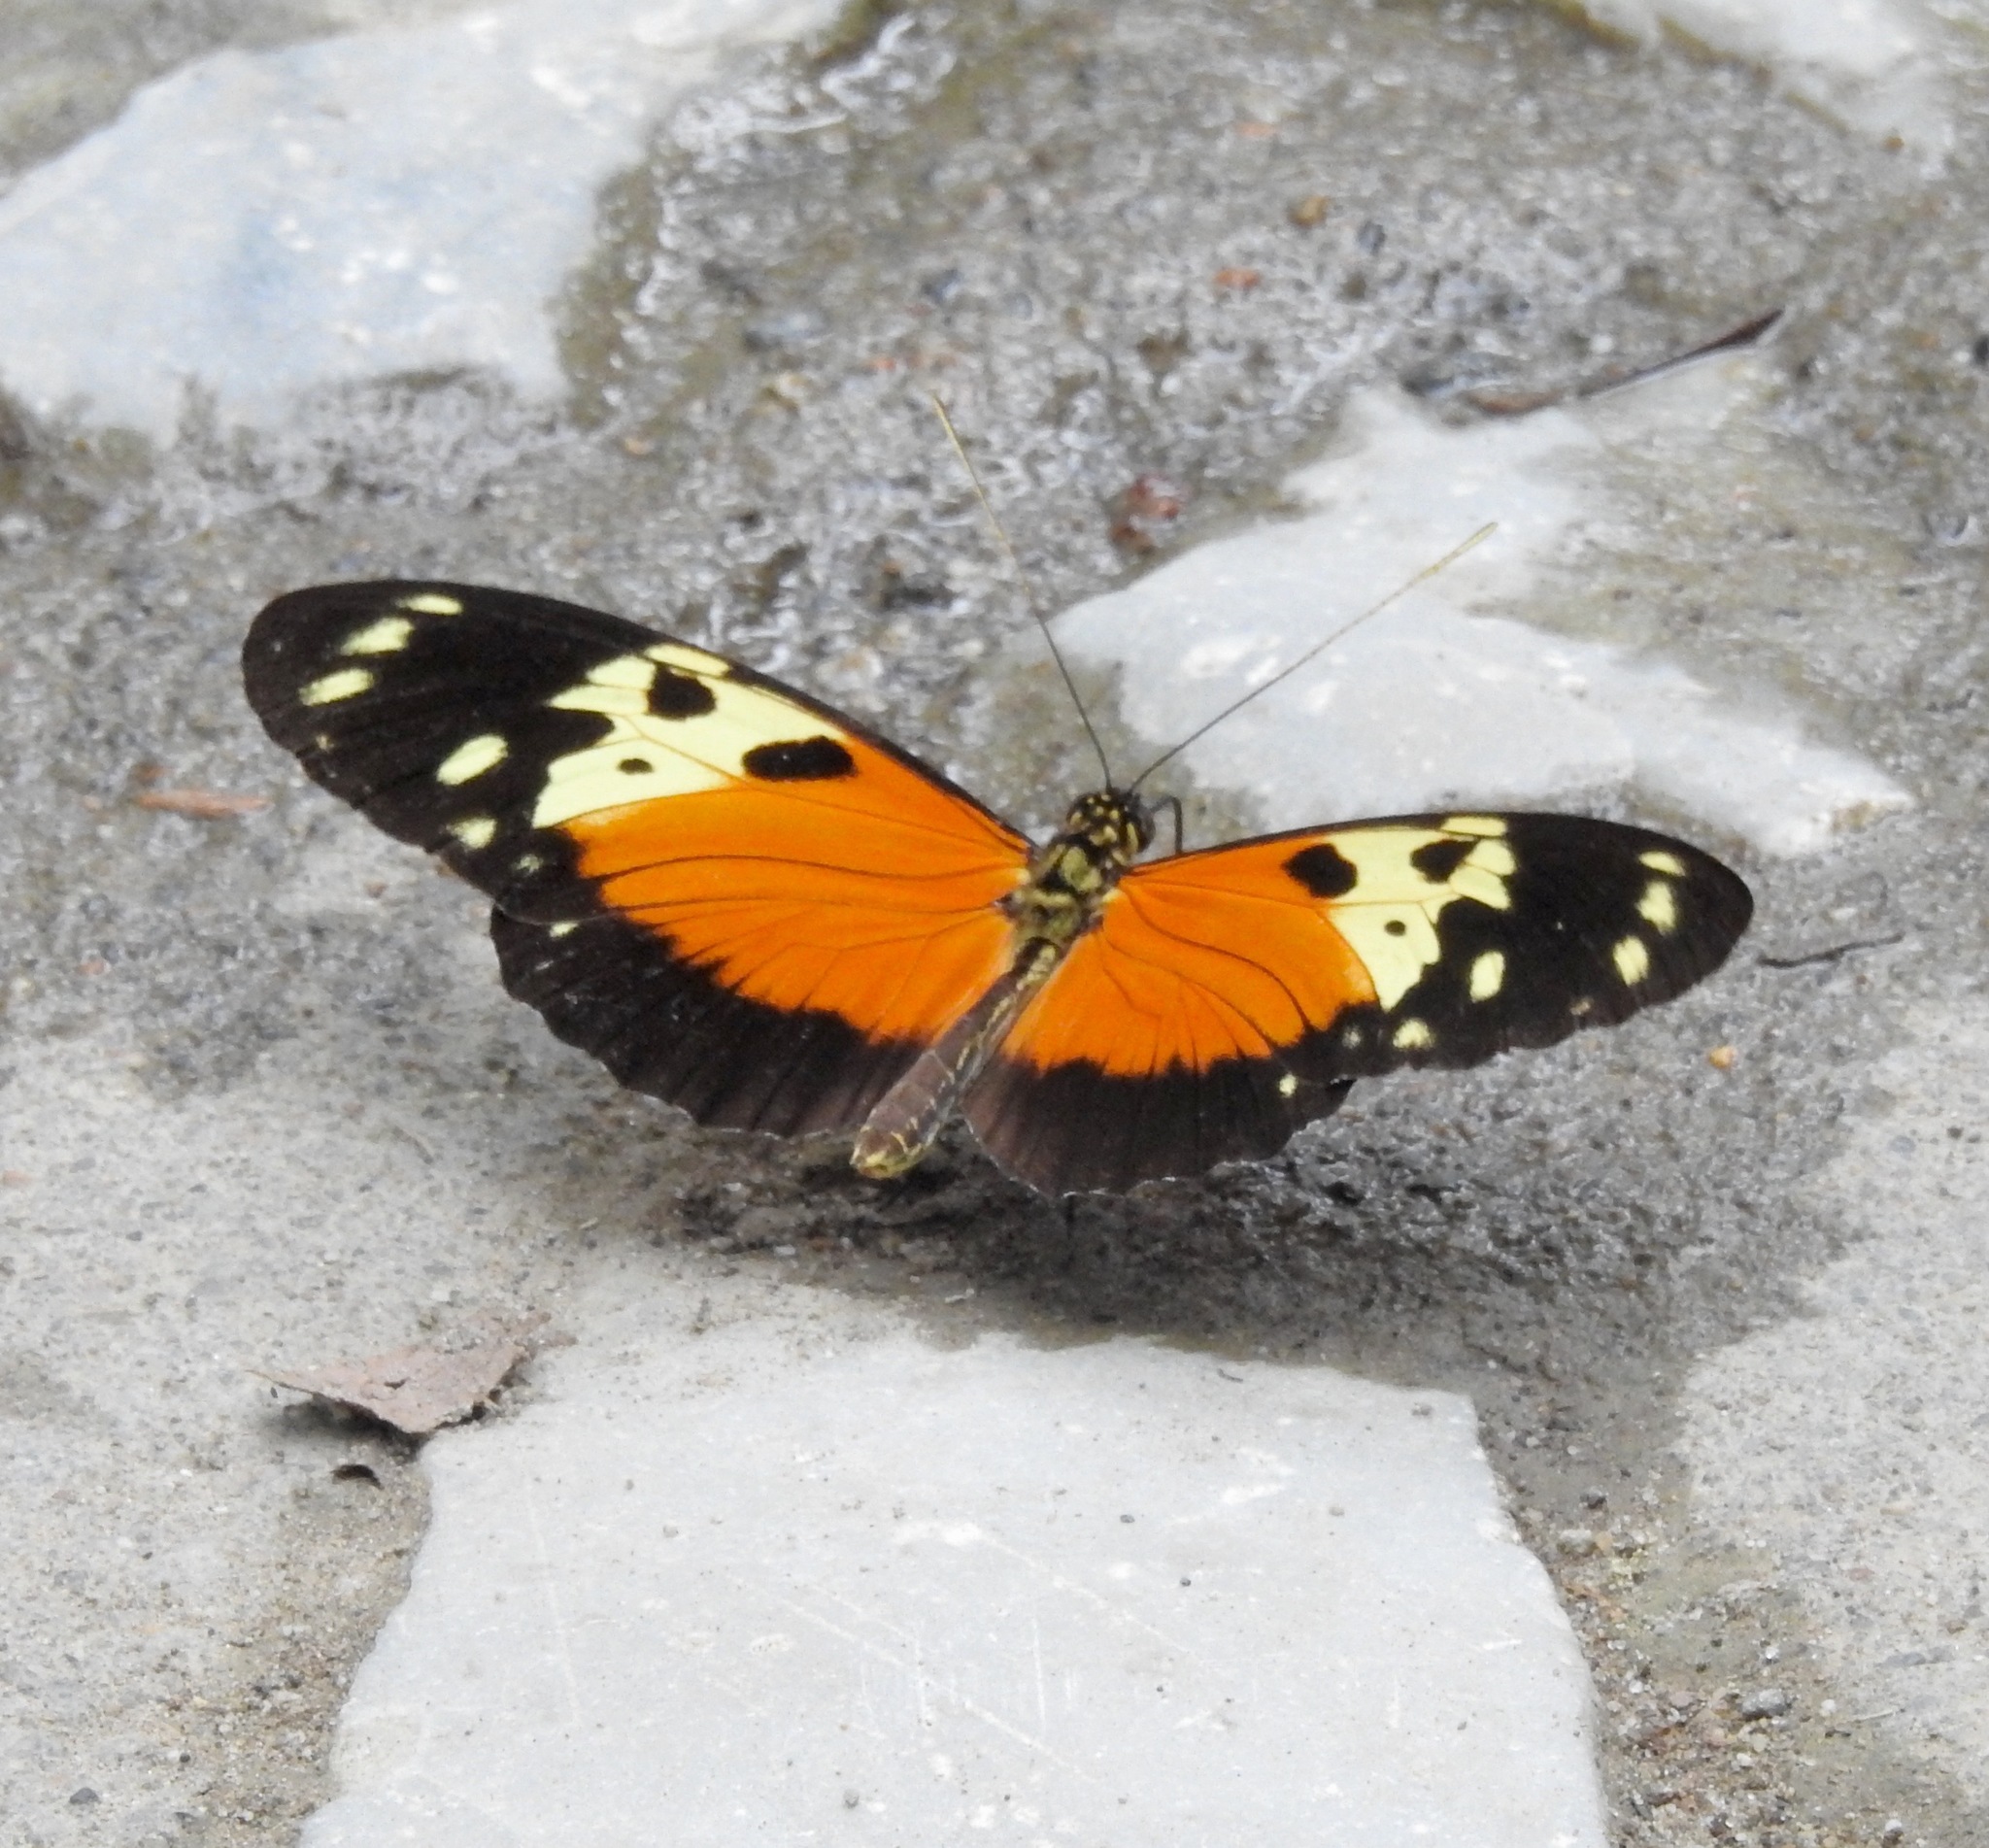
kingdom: Animalia
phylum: Arthropoda
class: Insecta
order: Lepidoptera
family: Nymphalidae
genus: Heliconius
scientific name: Heliconius hecale
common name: Tiger longwing
